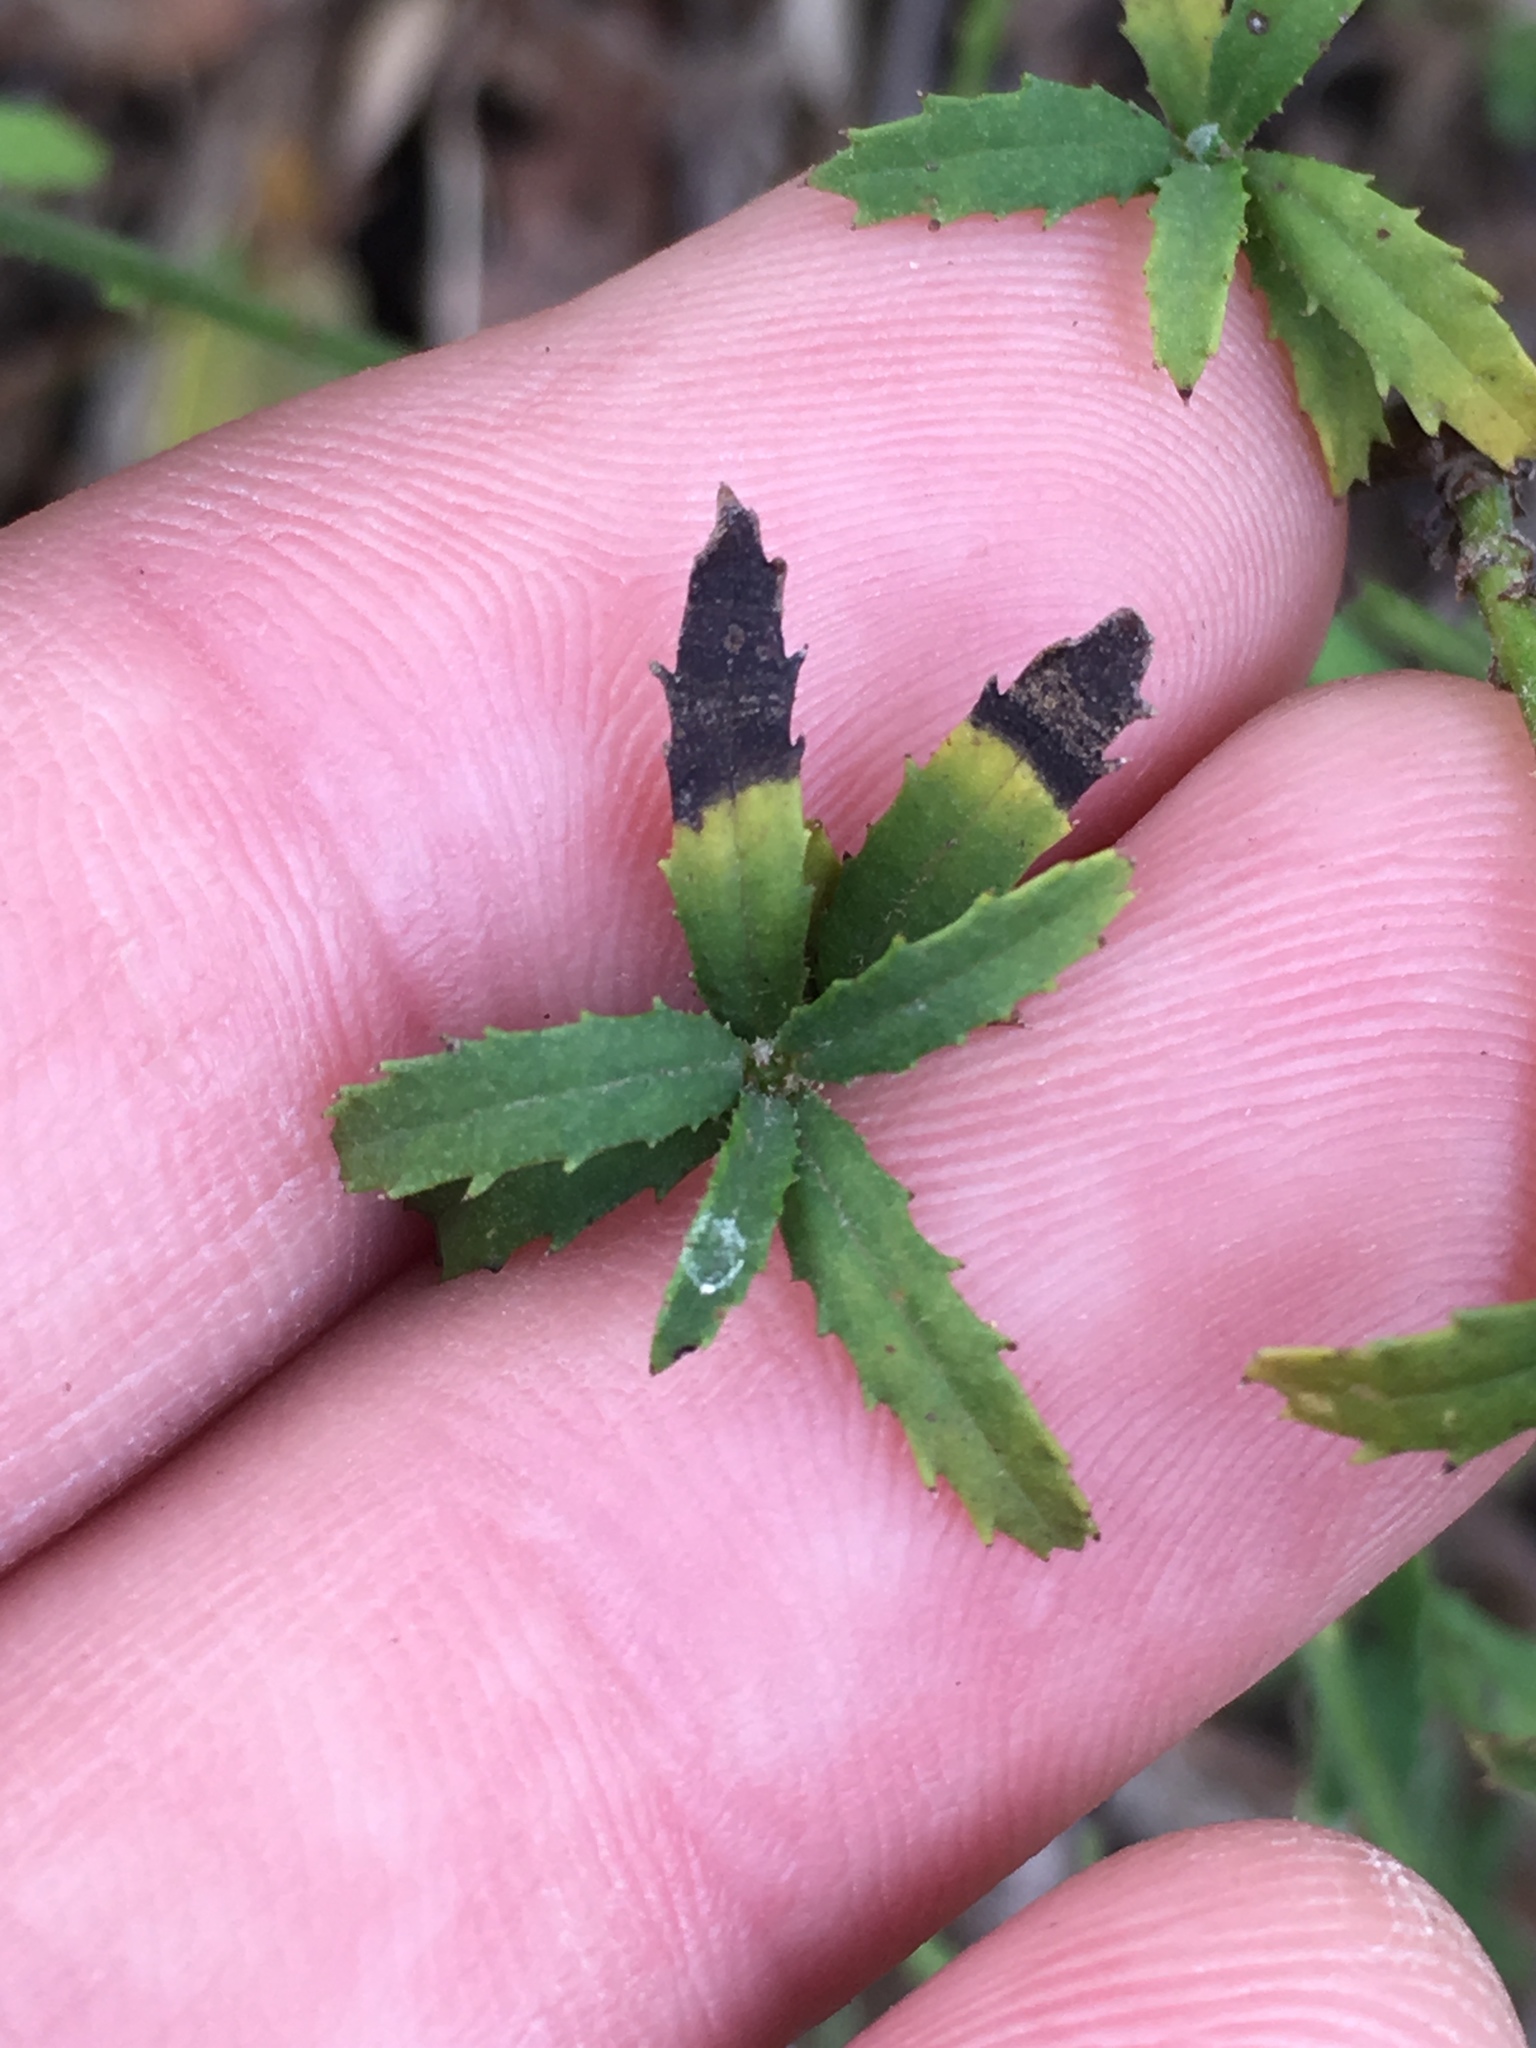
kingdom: Plantae
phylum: Tracheophyta
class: Magnoliopsida
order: Asterales
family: Asteraceae
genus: Baccharis
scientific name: Baccharis plummerae
